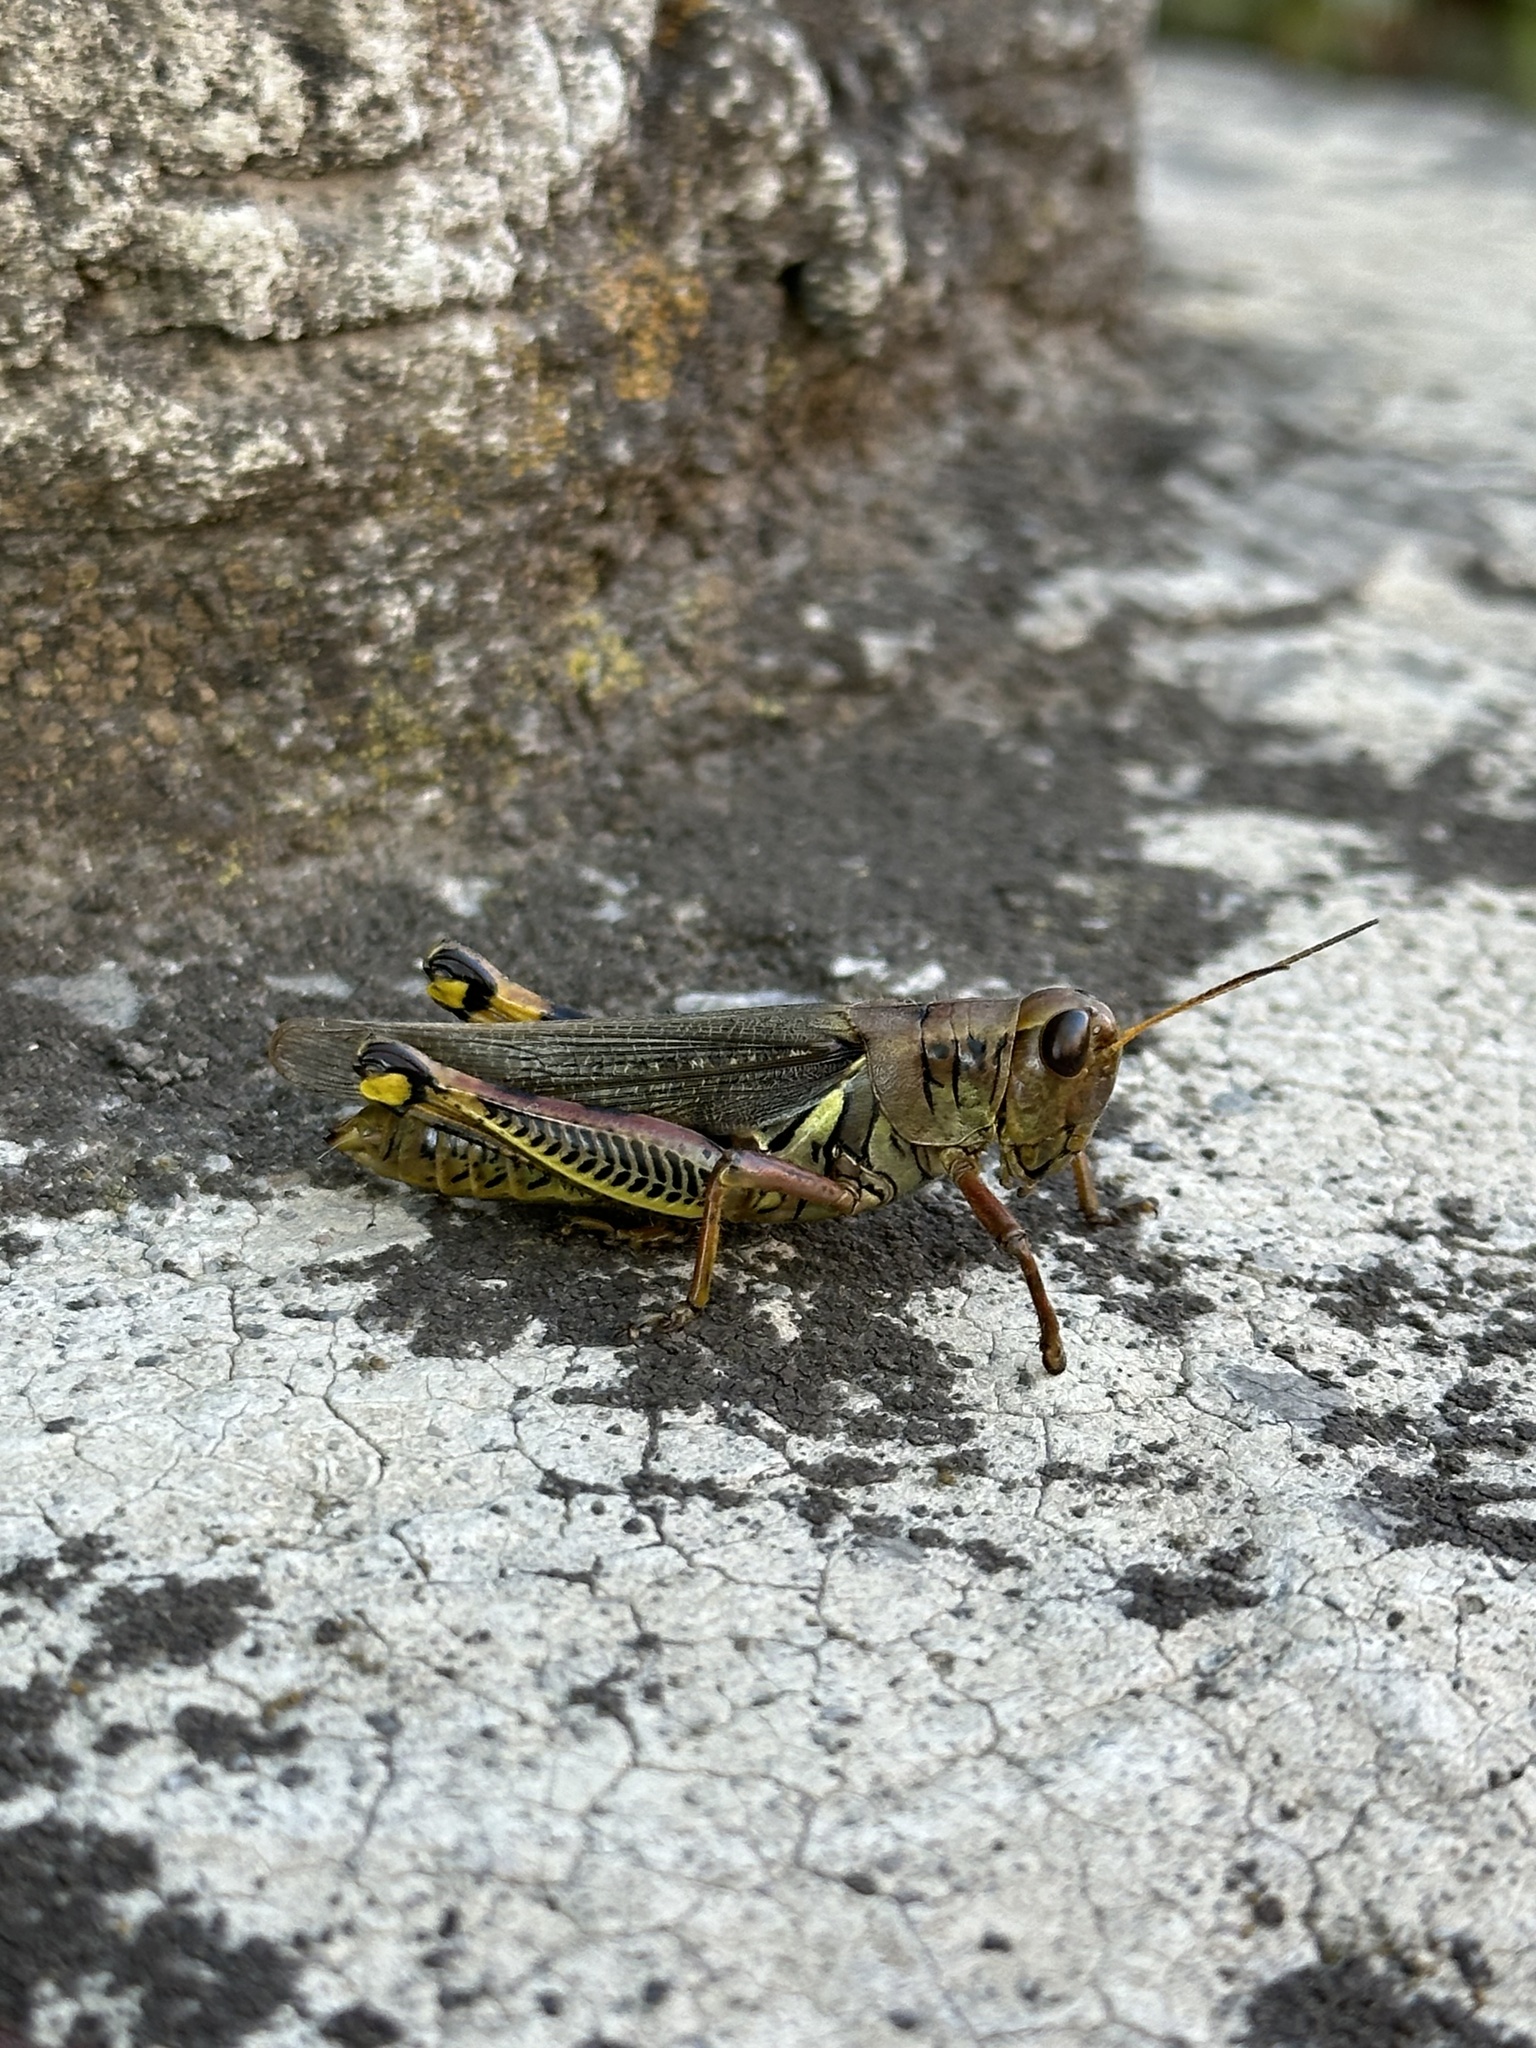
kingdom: Animalia
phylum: Arthropoda
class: Insecta
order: Orthoptera
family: Acrididae
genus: Melanoplus
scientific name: Melanoplus differentialis
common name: Differential grasshopper
